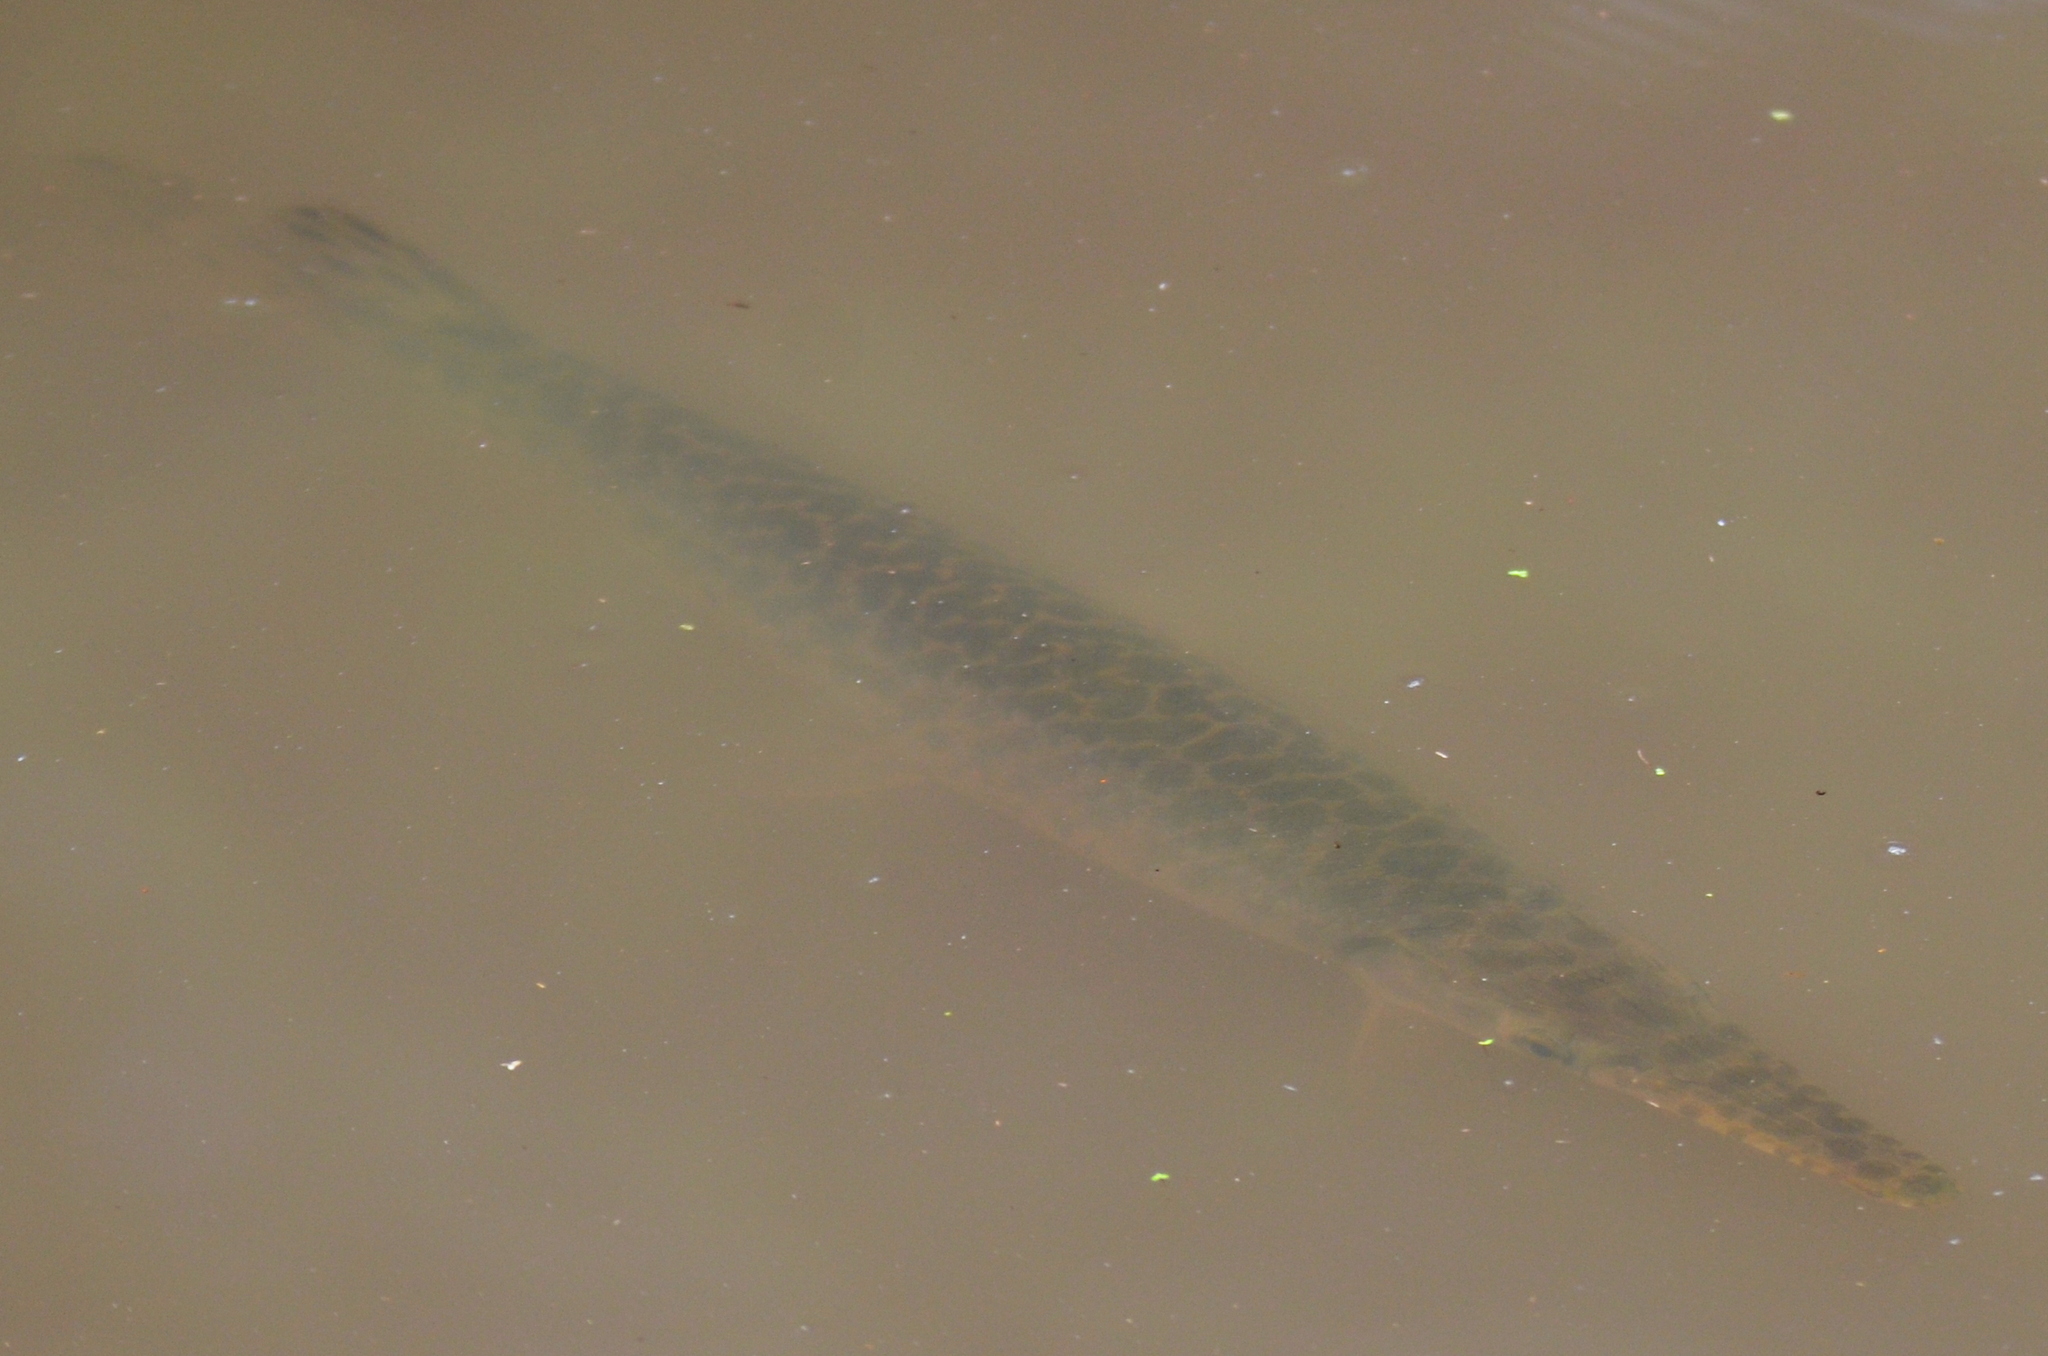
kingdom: Animalia
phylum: Chordata
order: Lepisosteiformes
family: Lepisosteidae
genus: Lepisosteus
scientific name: Lepisosteus oculatus
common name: Spotted gar
